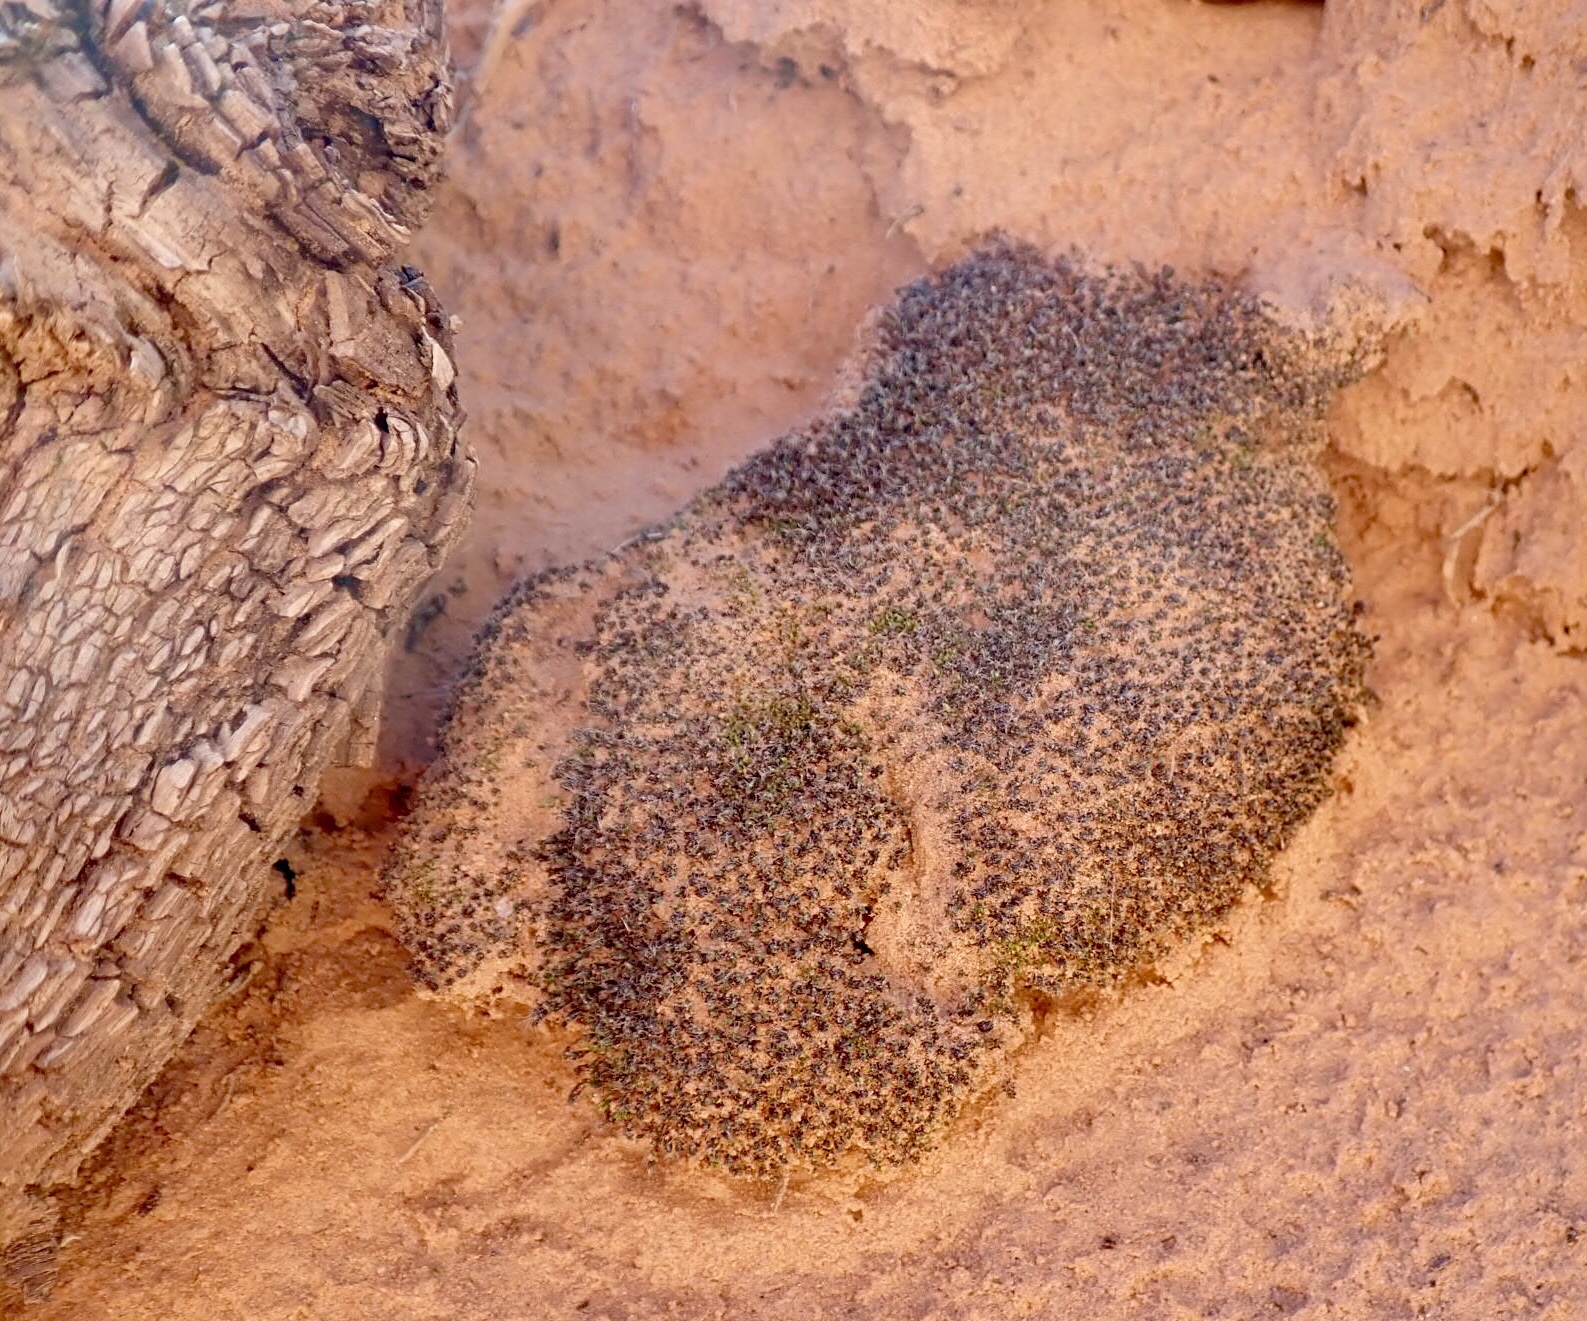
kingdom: Plantae
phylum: Bryophyta
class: Bryopsida
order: Pottiales
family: Pottiaceae
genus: Syntrichia
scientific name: Syntrichia caninervis
